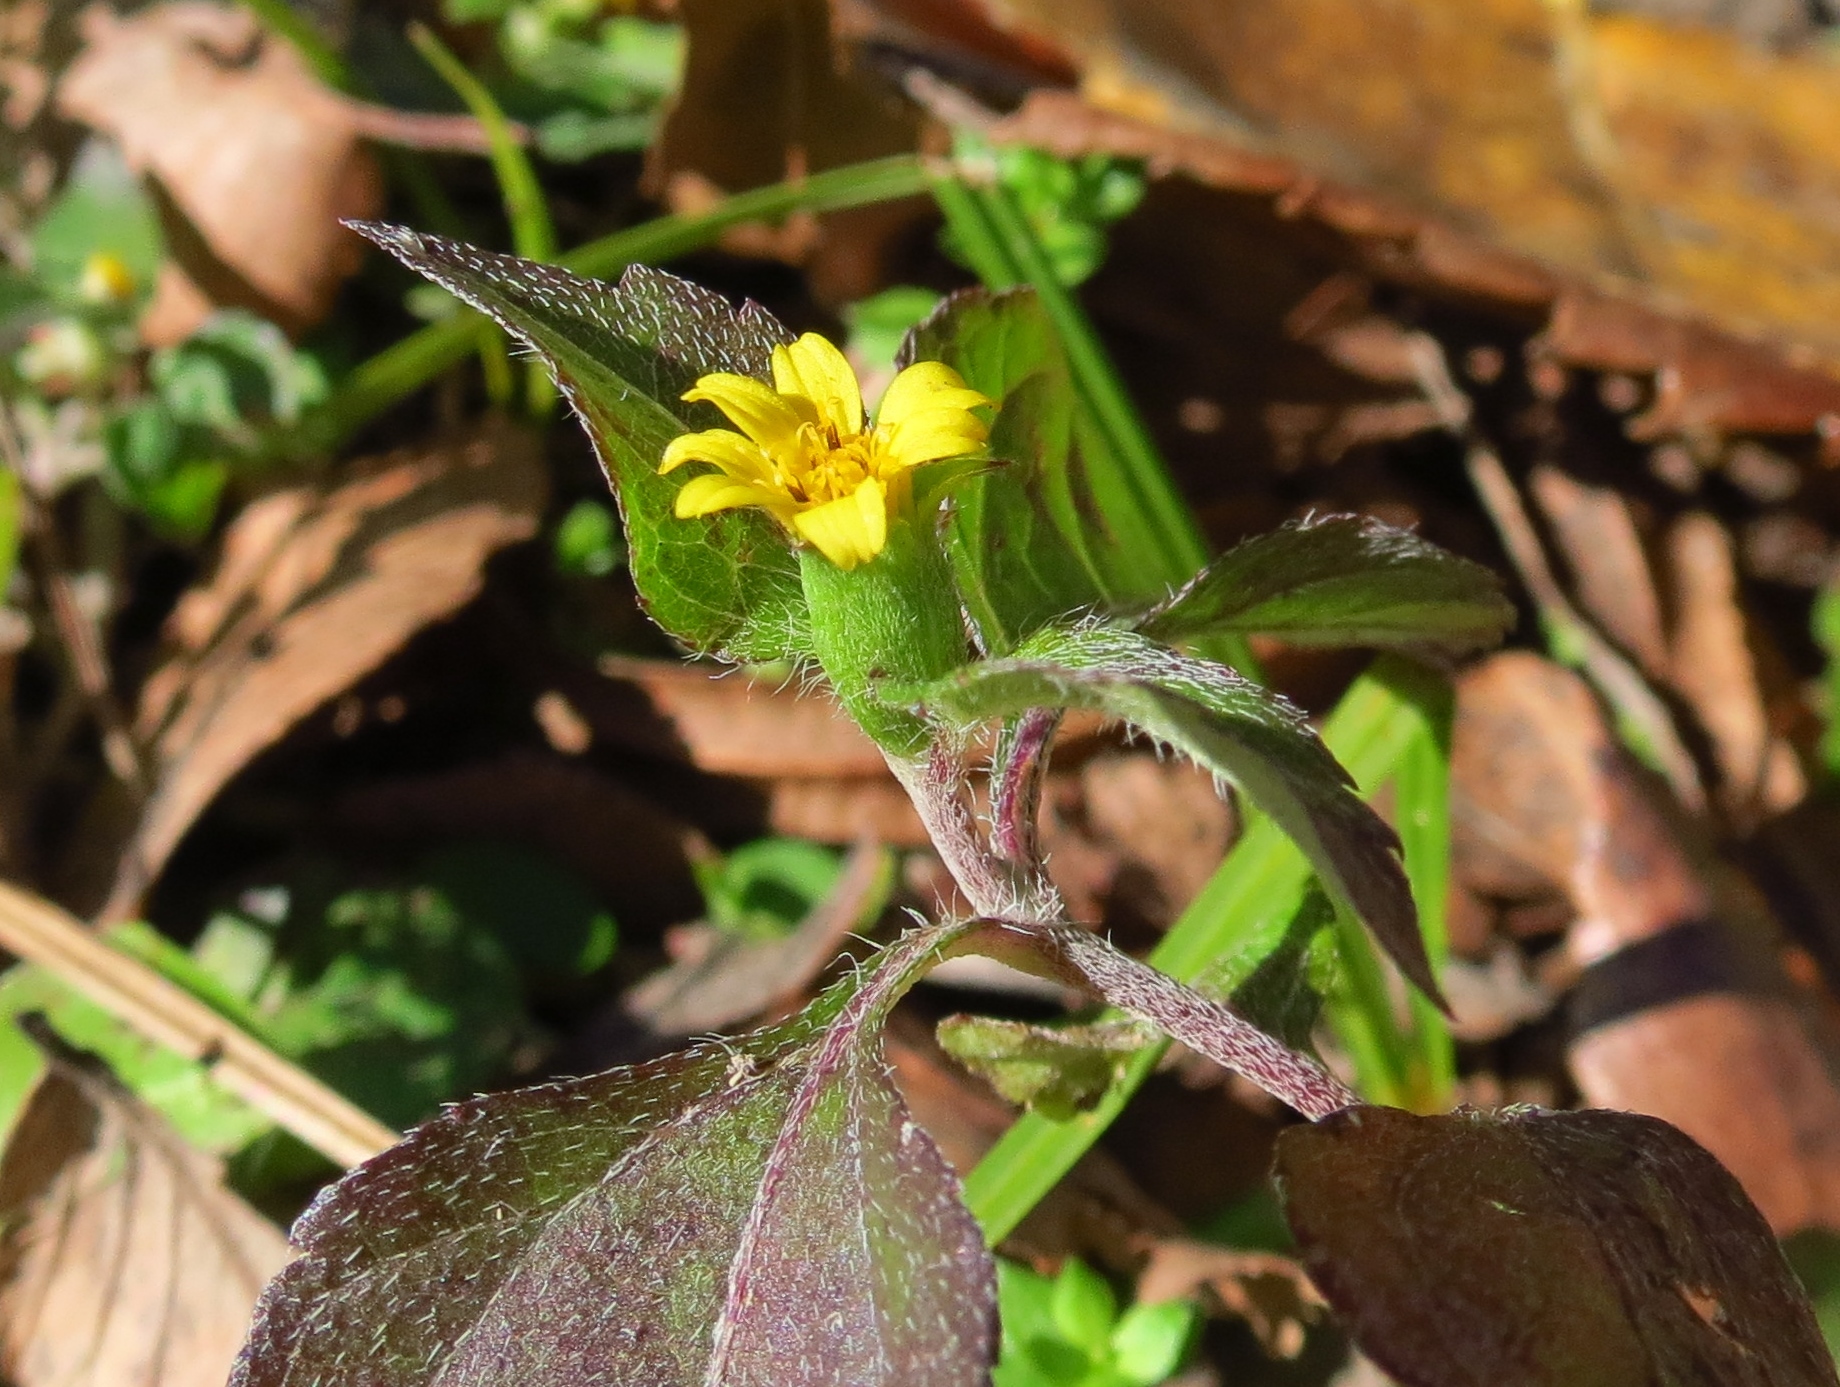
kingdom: Plantae
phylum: Tracheophyta
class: Magnoliopsida
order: Asterales
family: Asteraceae
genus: Calyptocarpus
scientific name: Calyptocarpus vialis
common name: Straggler daisy
